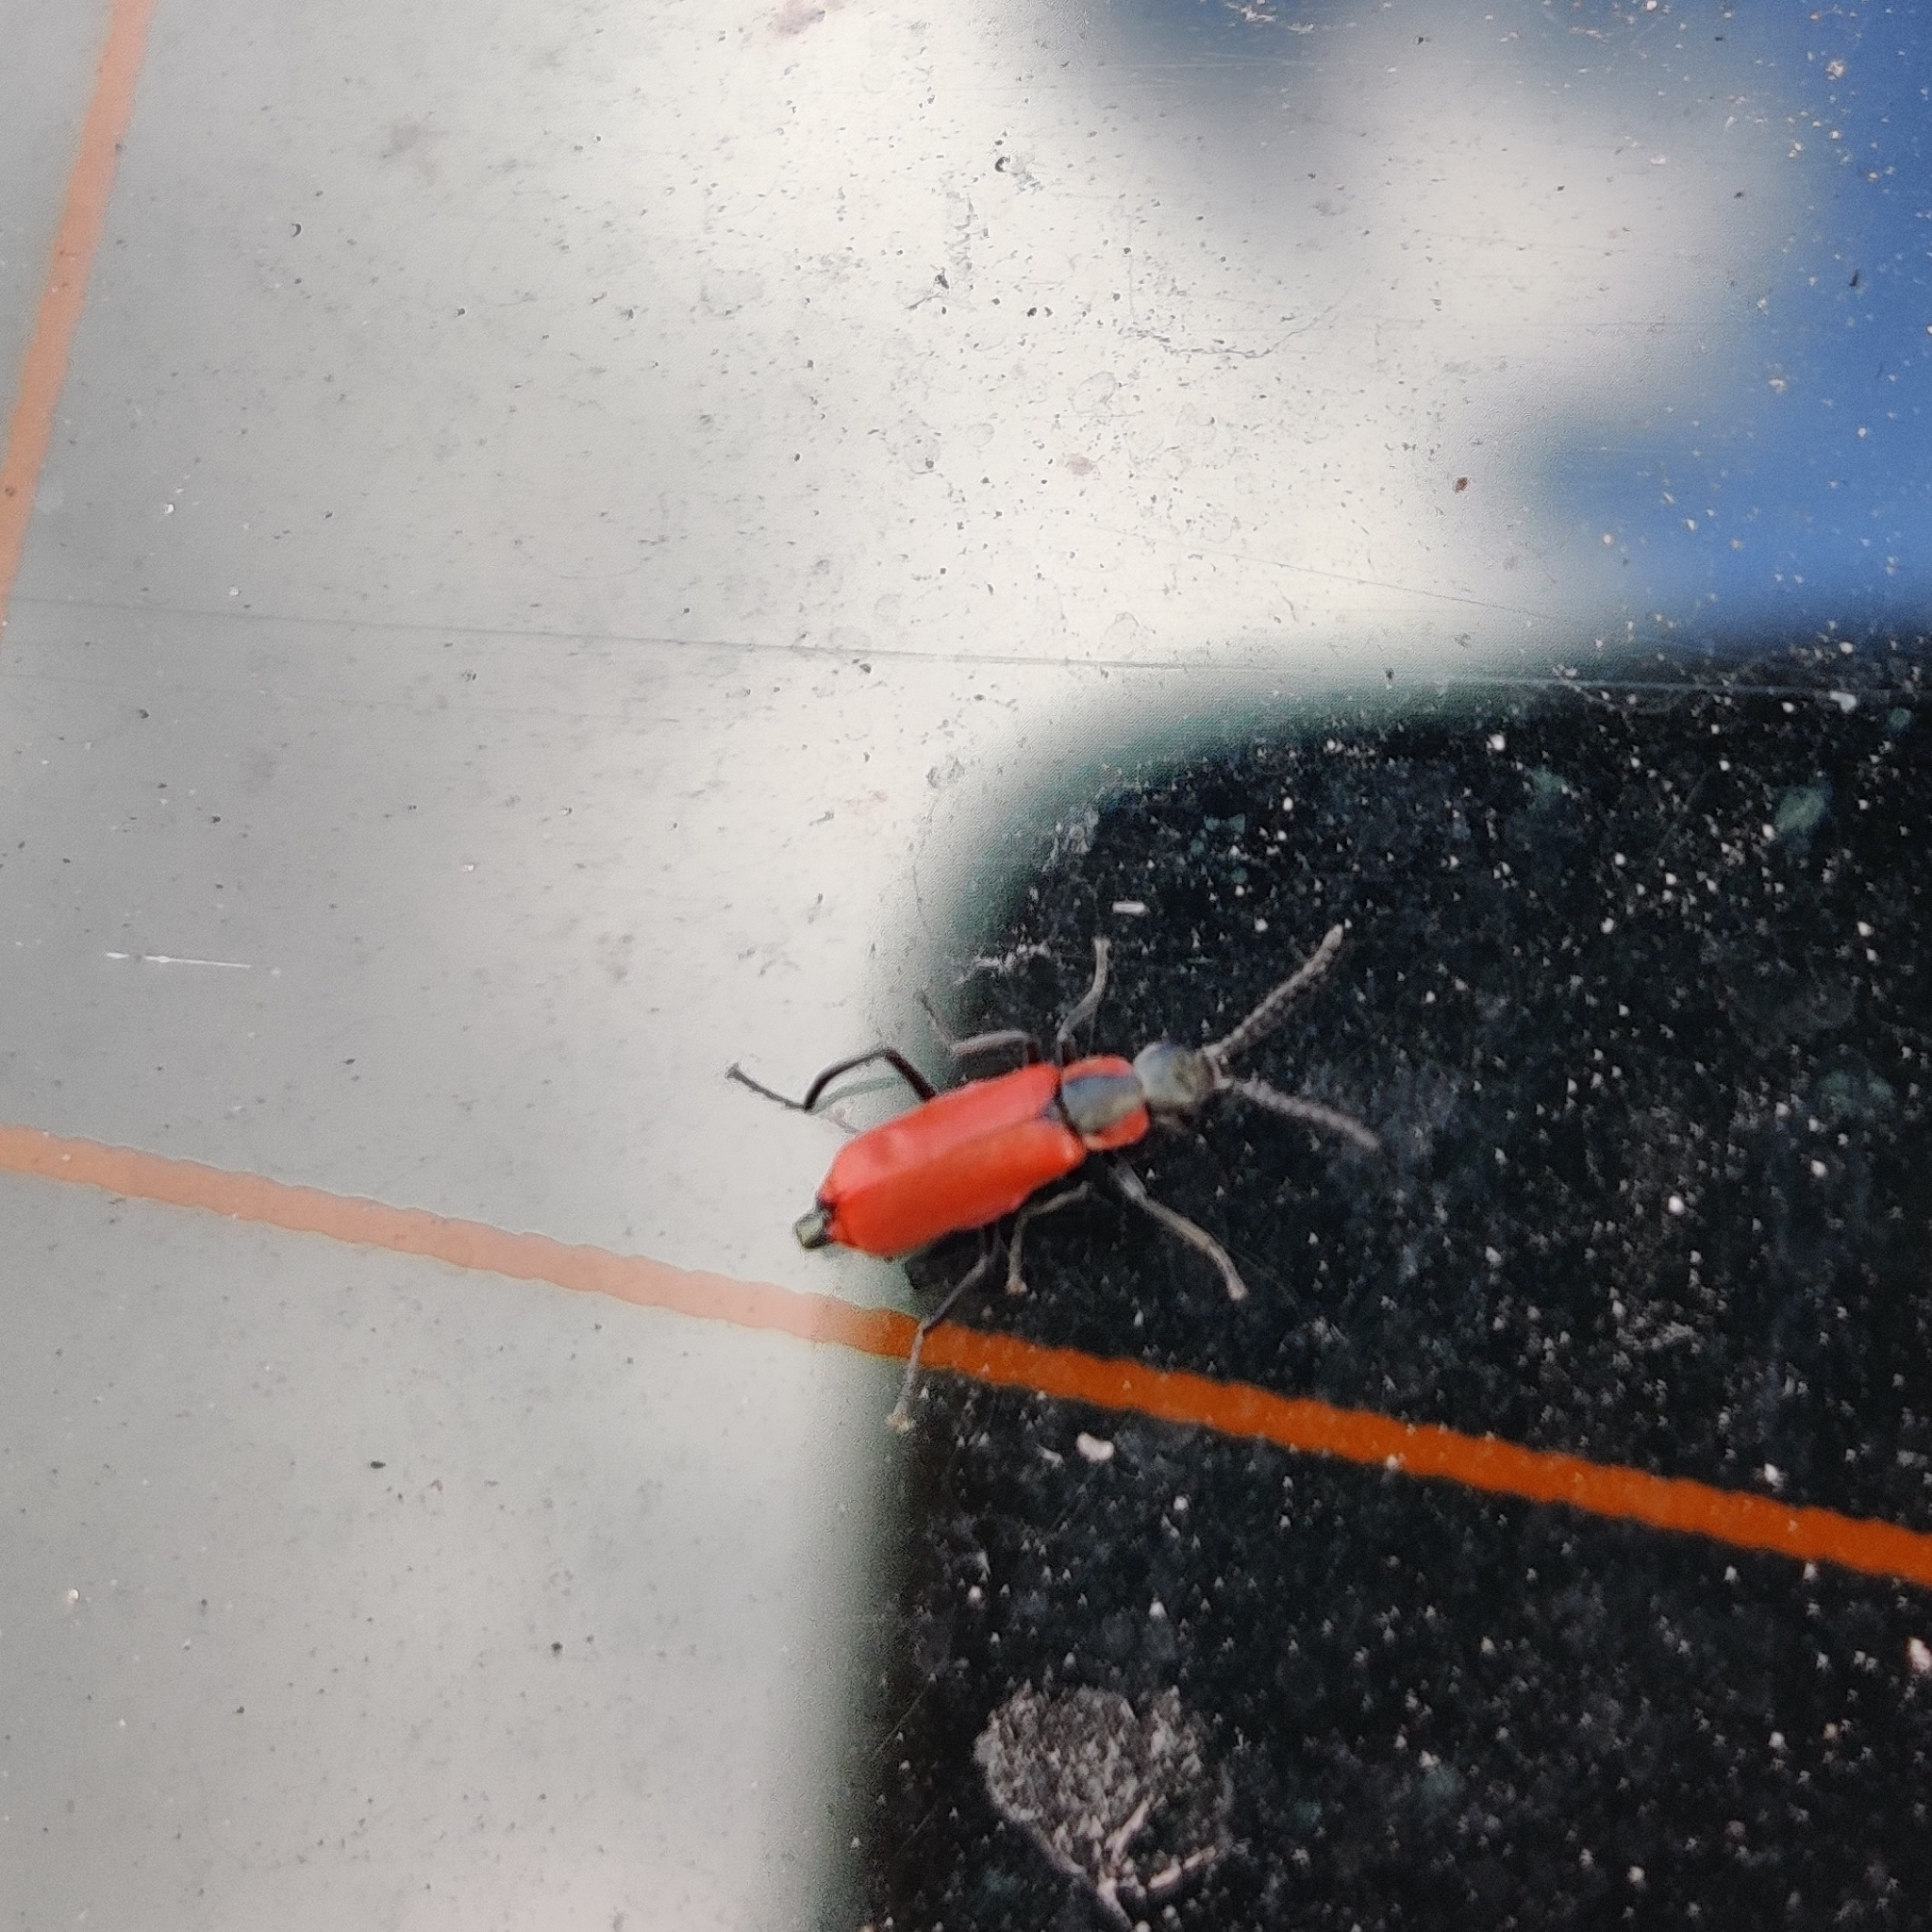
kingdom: Animalia
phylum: Arthropoda
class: Insecta
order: Coleoptera
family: Melyridae
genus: Anthocomus
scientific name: Anthocomus rufus
